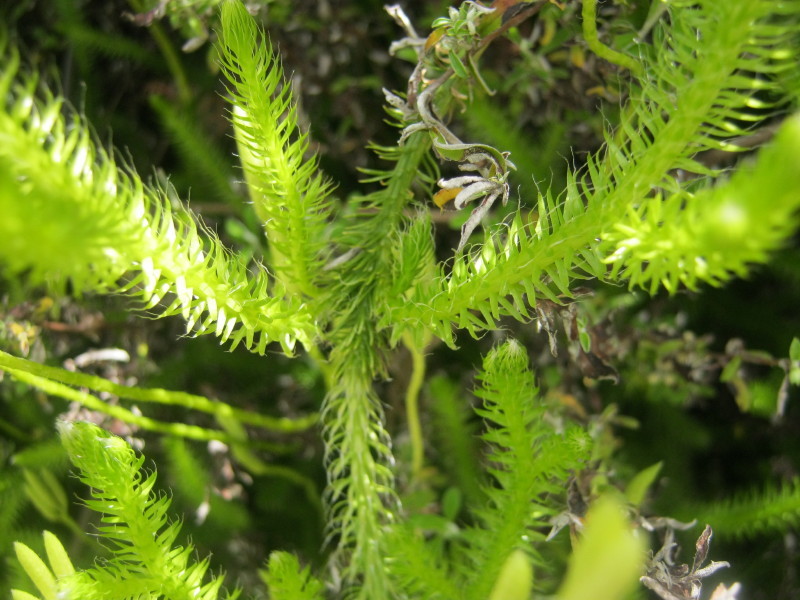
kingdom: Plantae
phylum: Tracheophyta
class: Lycopodiopsida
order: Lycopodiales
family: Lycopodiaceae
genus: Lycopodium
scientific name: Lycopodium clavatum
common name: Stag's-horn clubmoss
